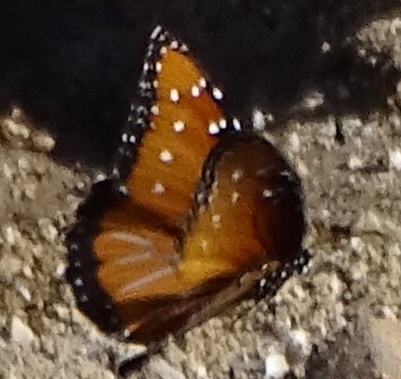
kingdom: Animalia
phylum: Arthropoda
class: Insecta
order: Lepidoptera
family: Nymphalidae
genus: Danaus
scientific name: Danaus gilippus
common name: Queen
